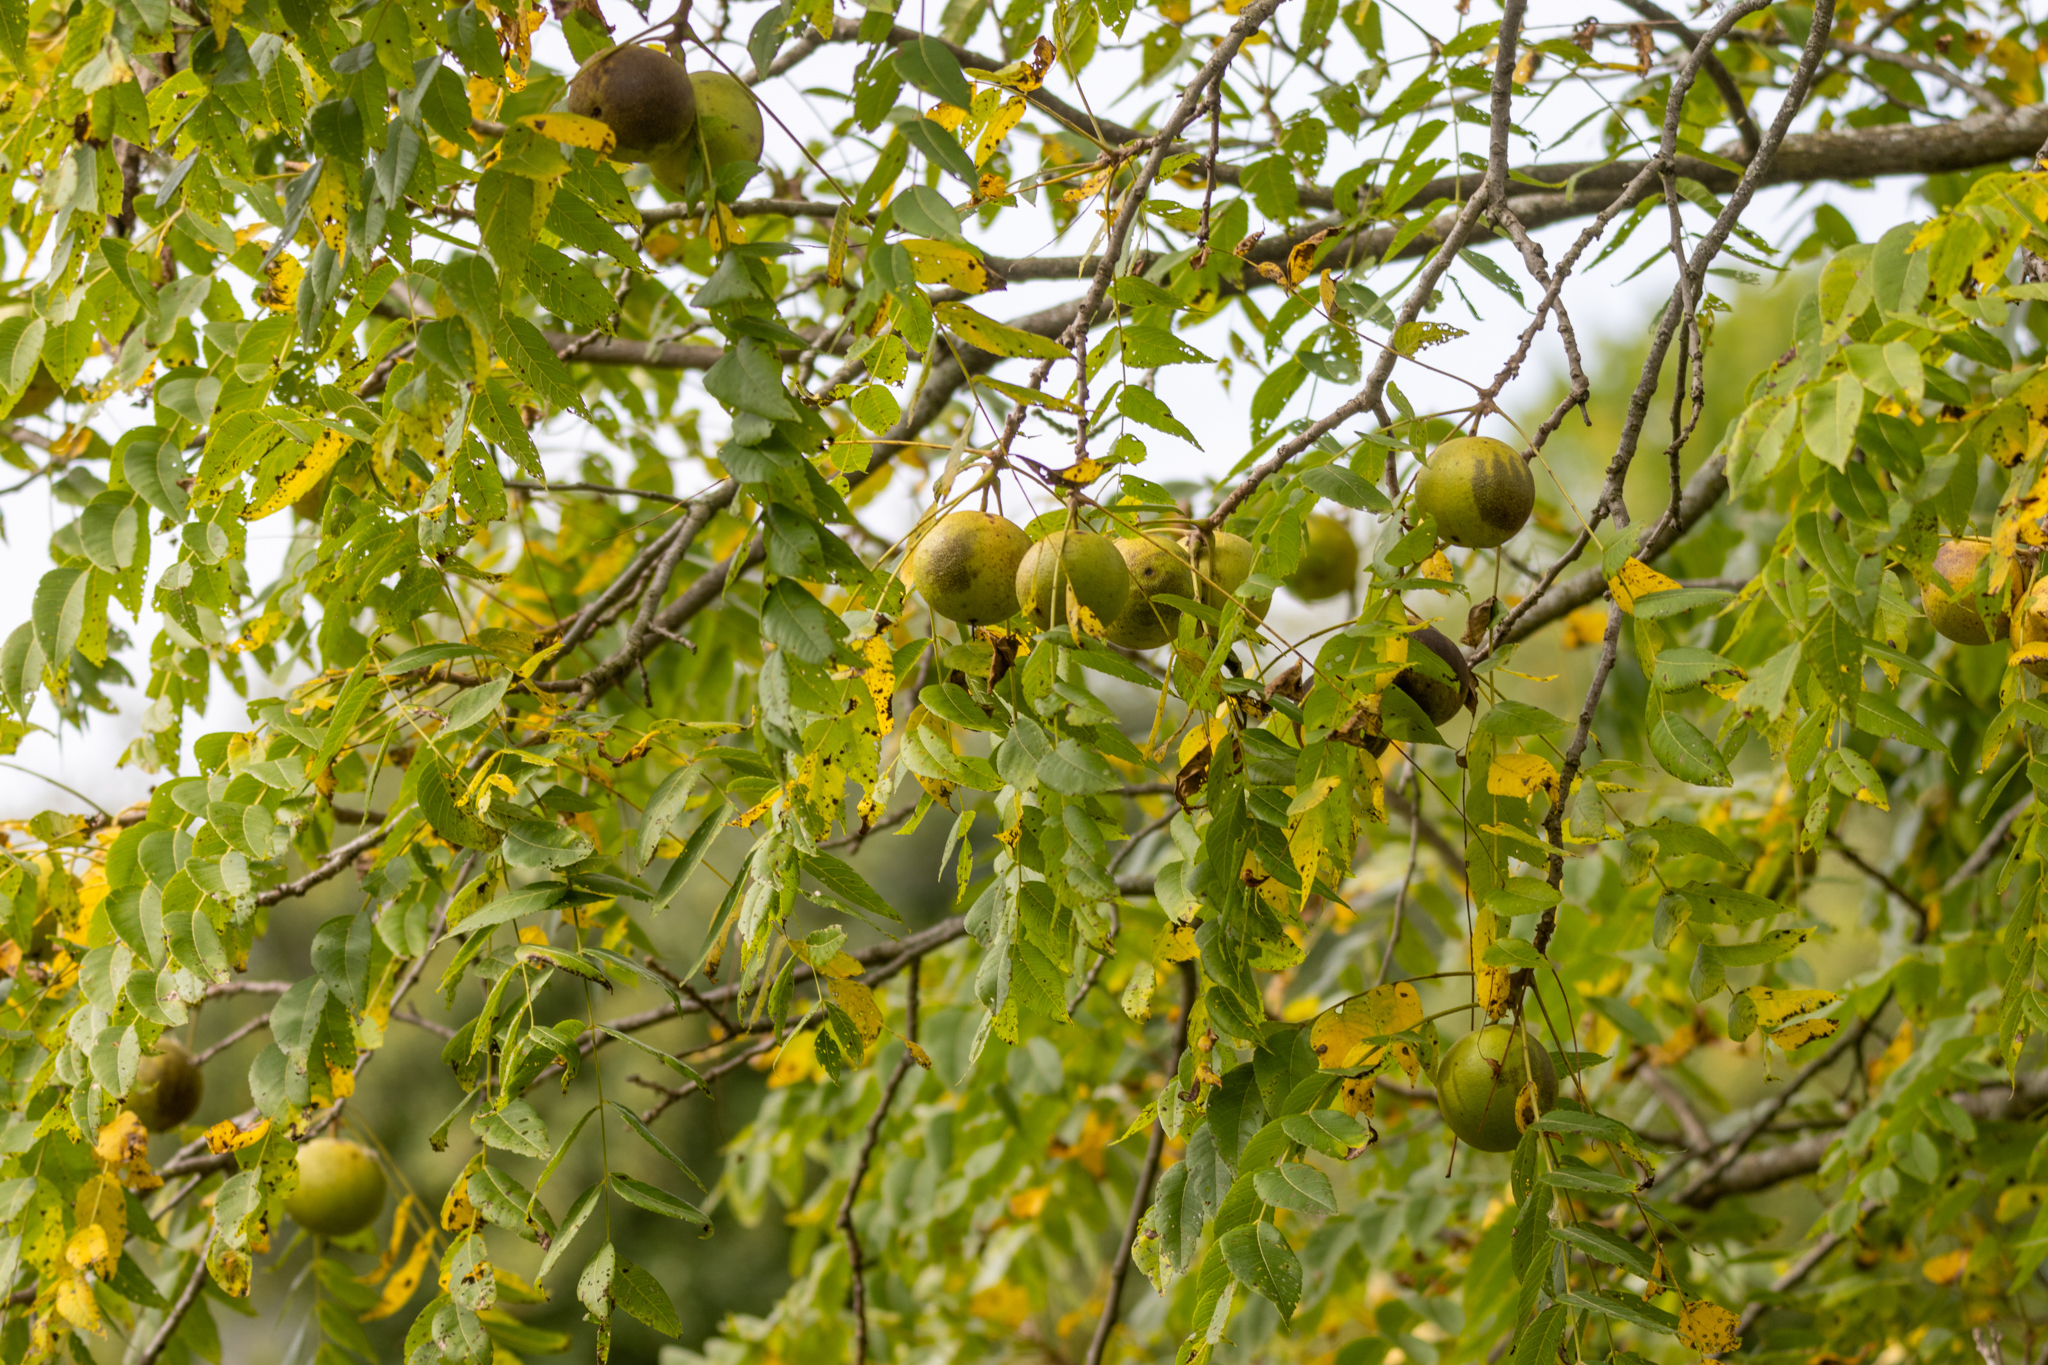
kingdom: Plantae
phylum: Tracheophyta
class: Magnoliopsida
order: Fagales
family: Juglandaceae
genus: Juglans
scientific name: Juglans nigra
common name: Black walnut
